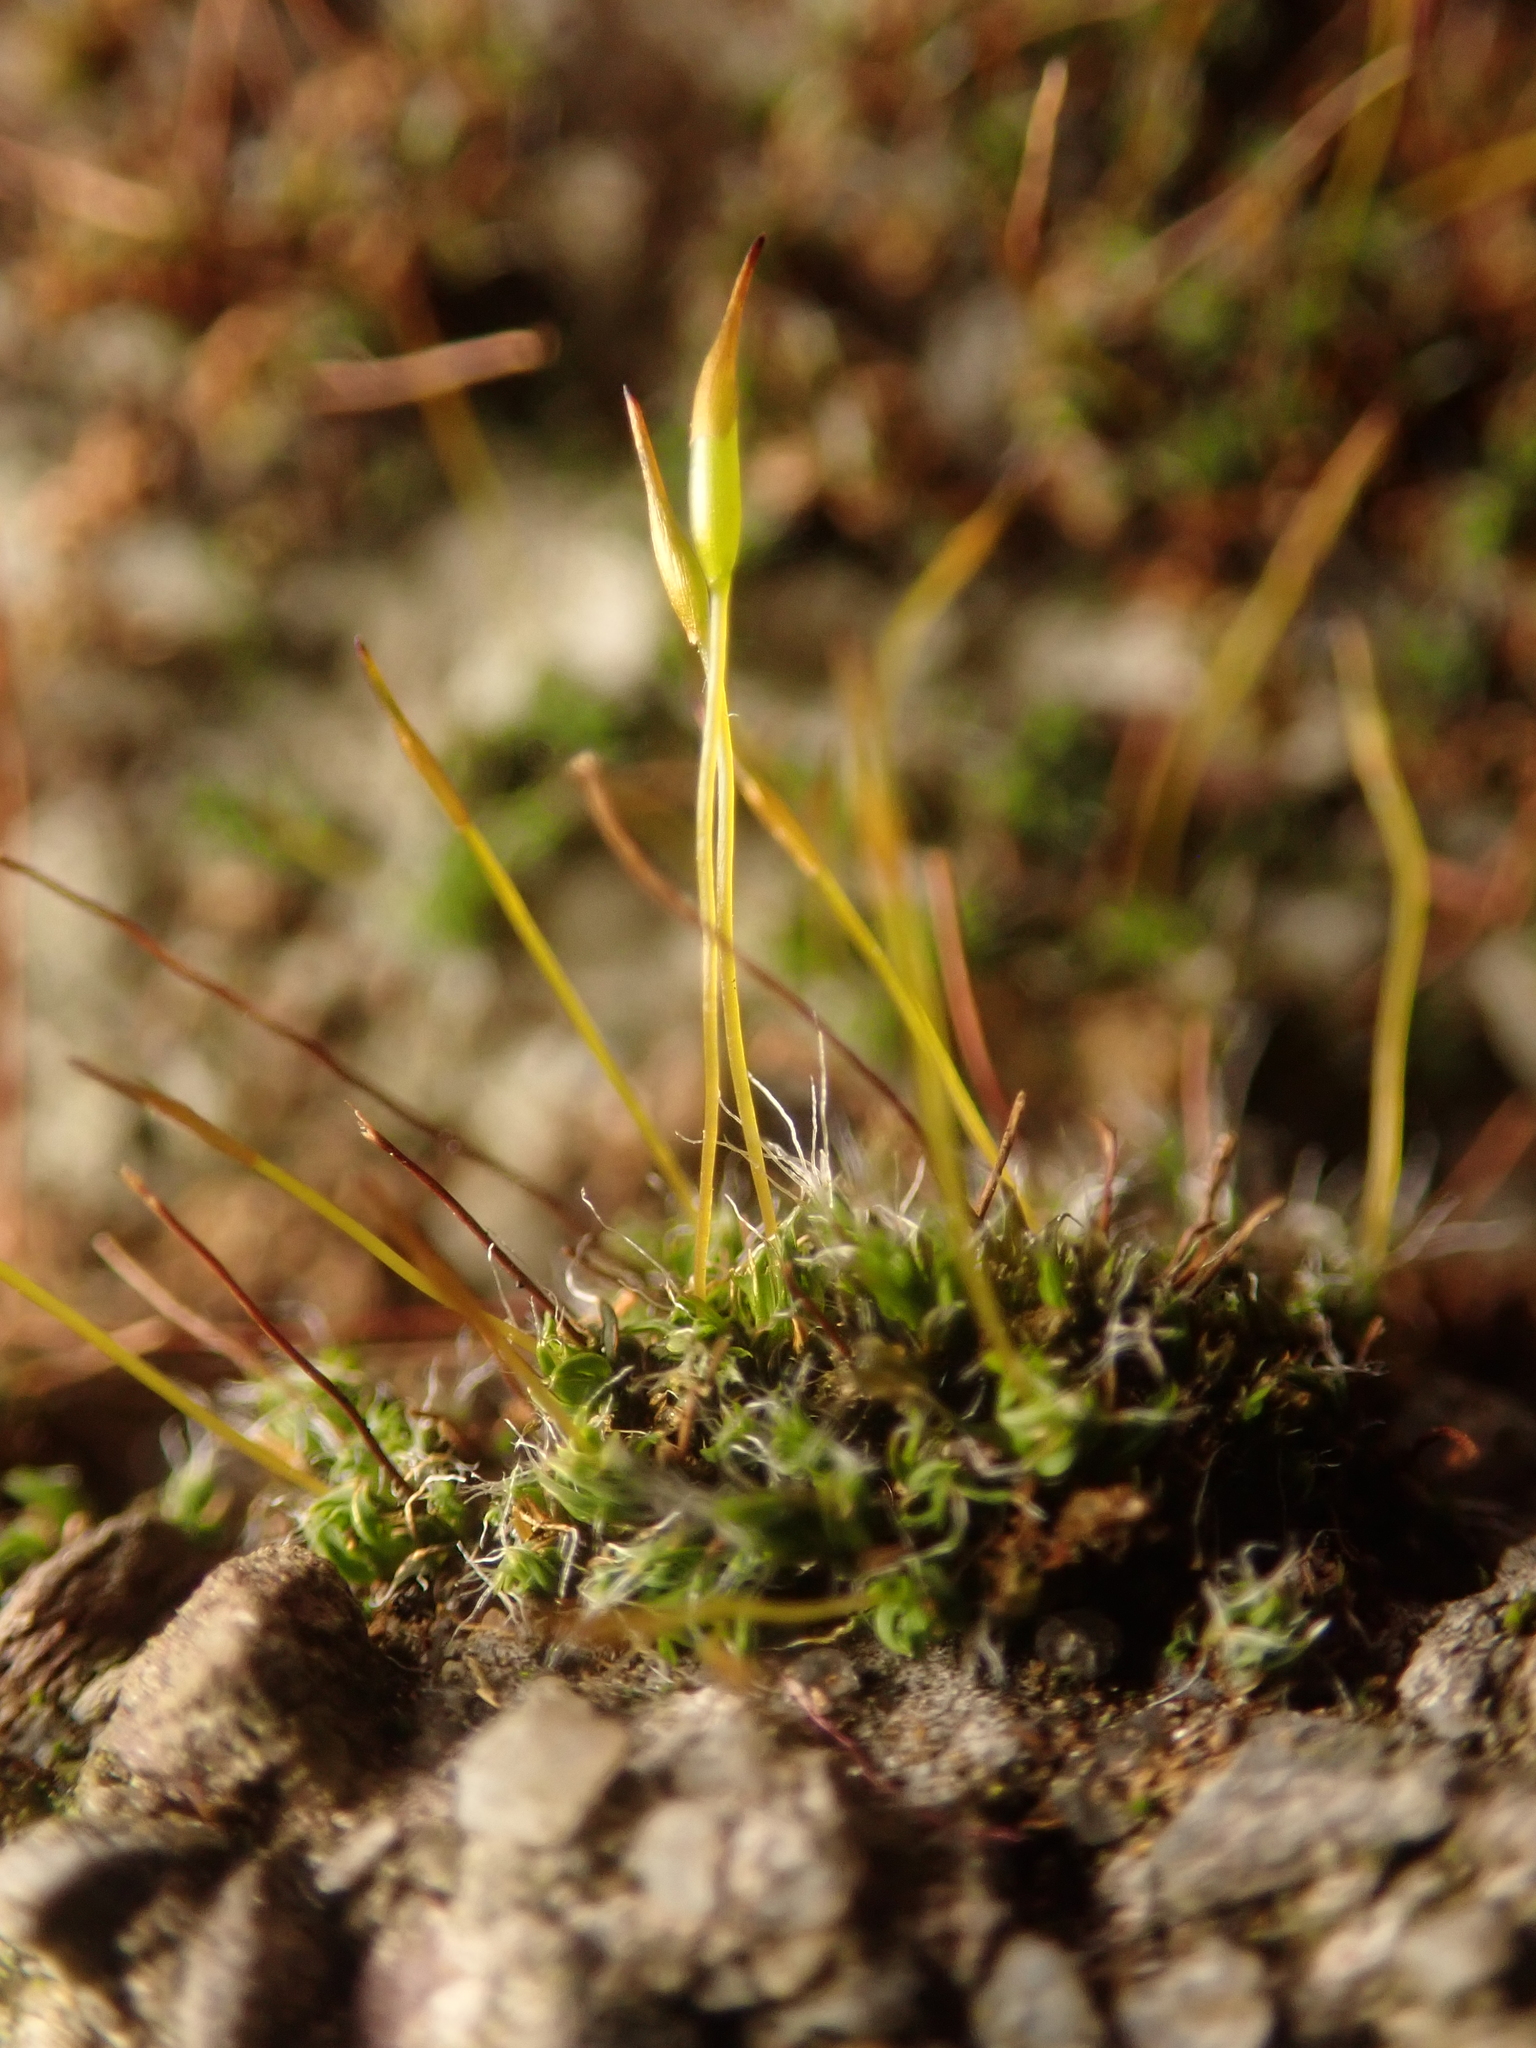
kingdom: Plantae
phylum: Bryophyta
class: Bryopsida
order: Pottiales
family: Pottiaceae
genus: Tortula
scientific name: Tortula muralis
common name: Wall screw-moss
